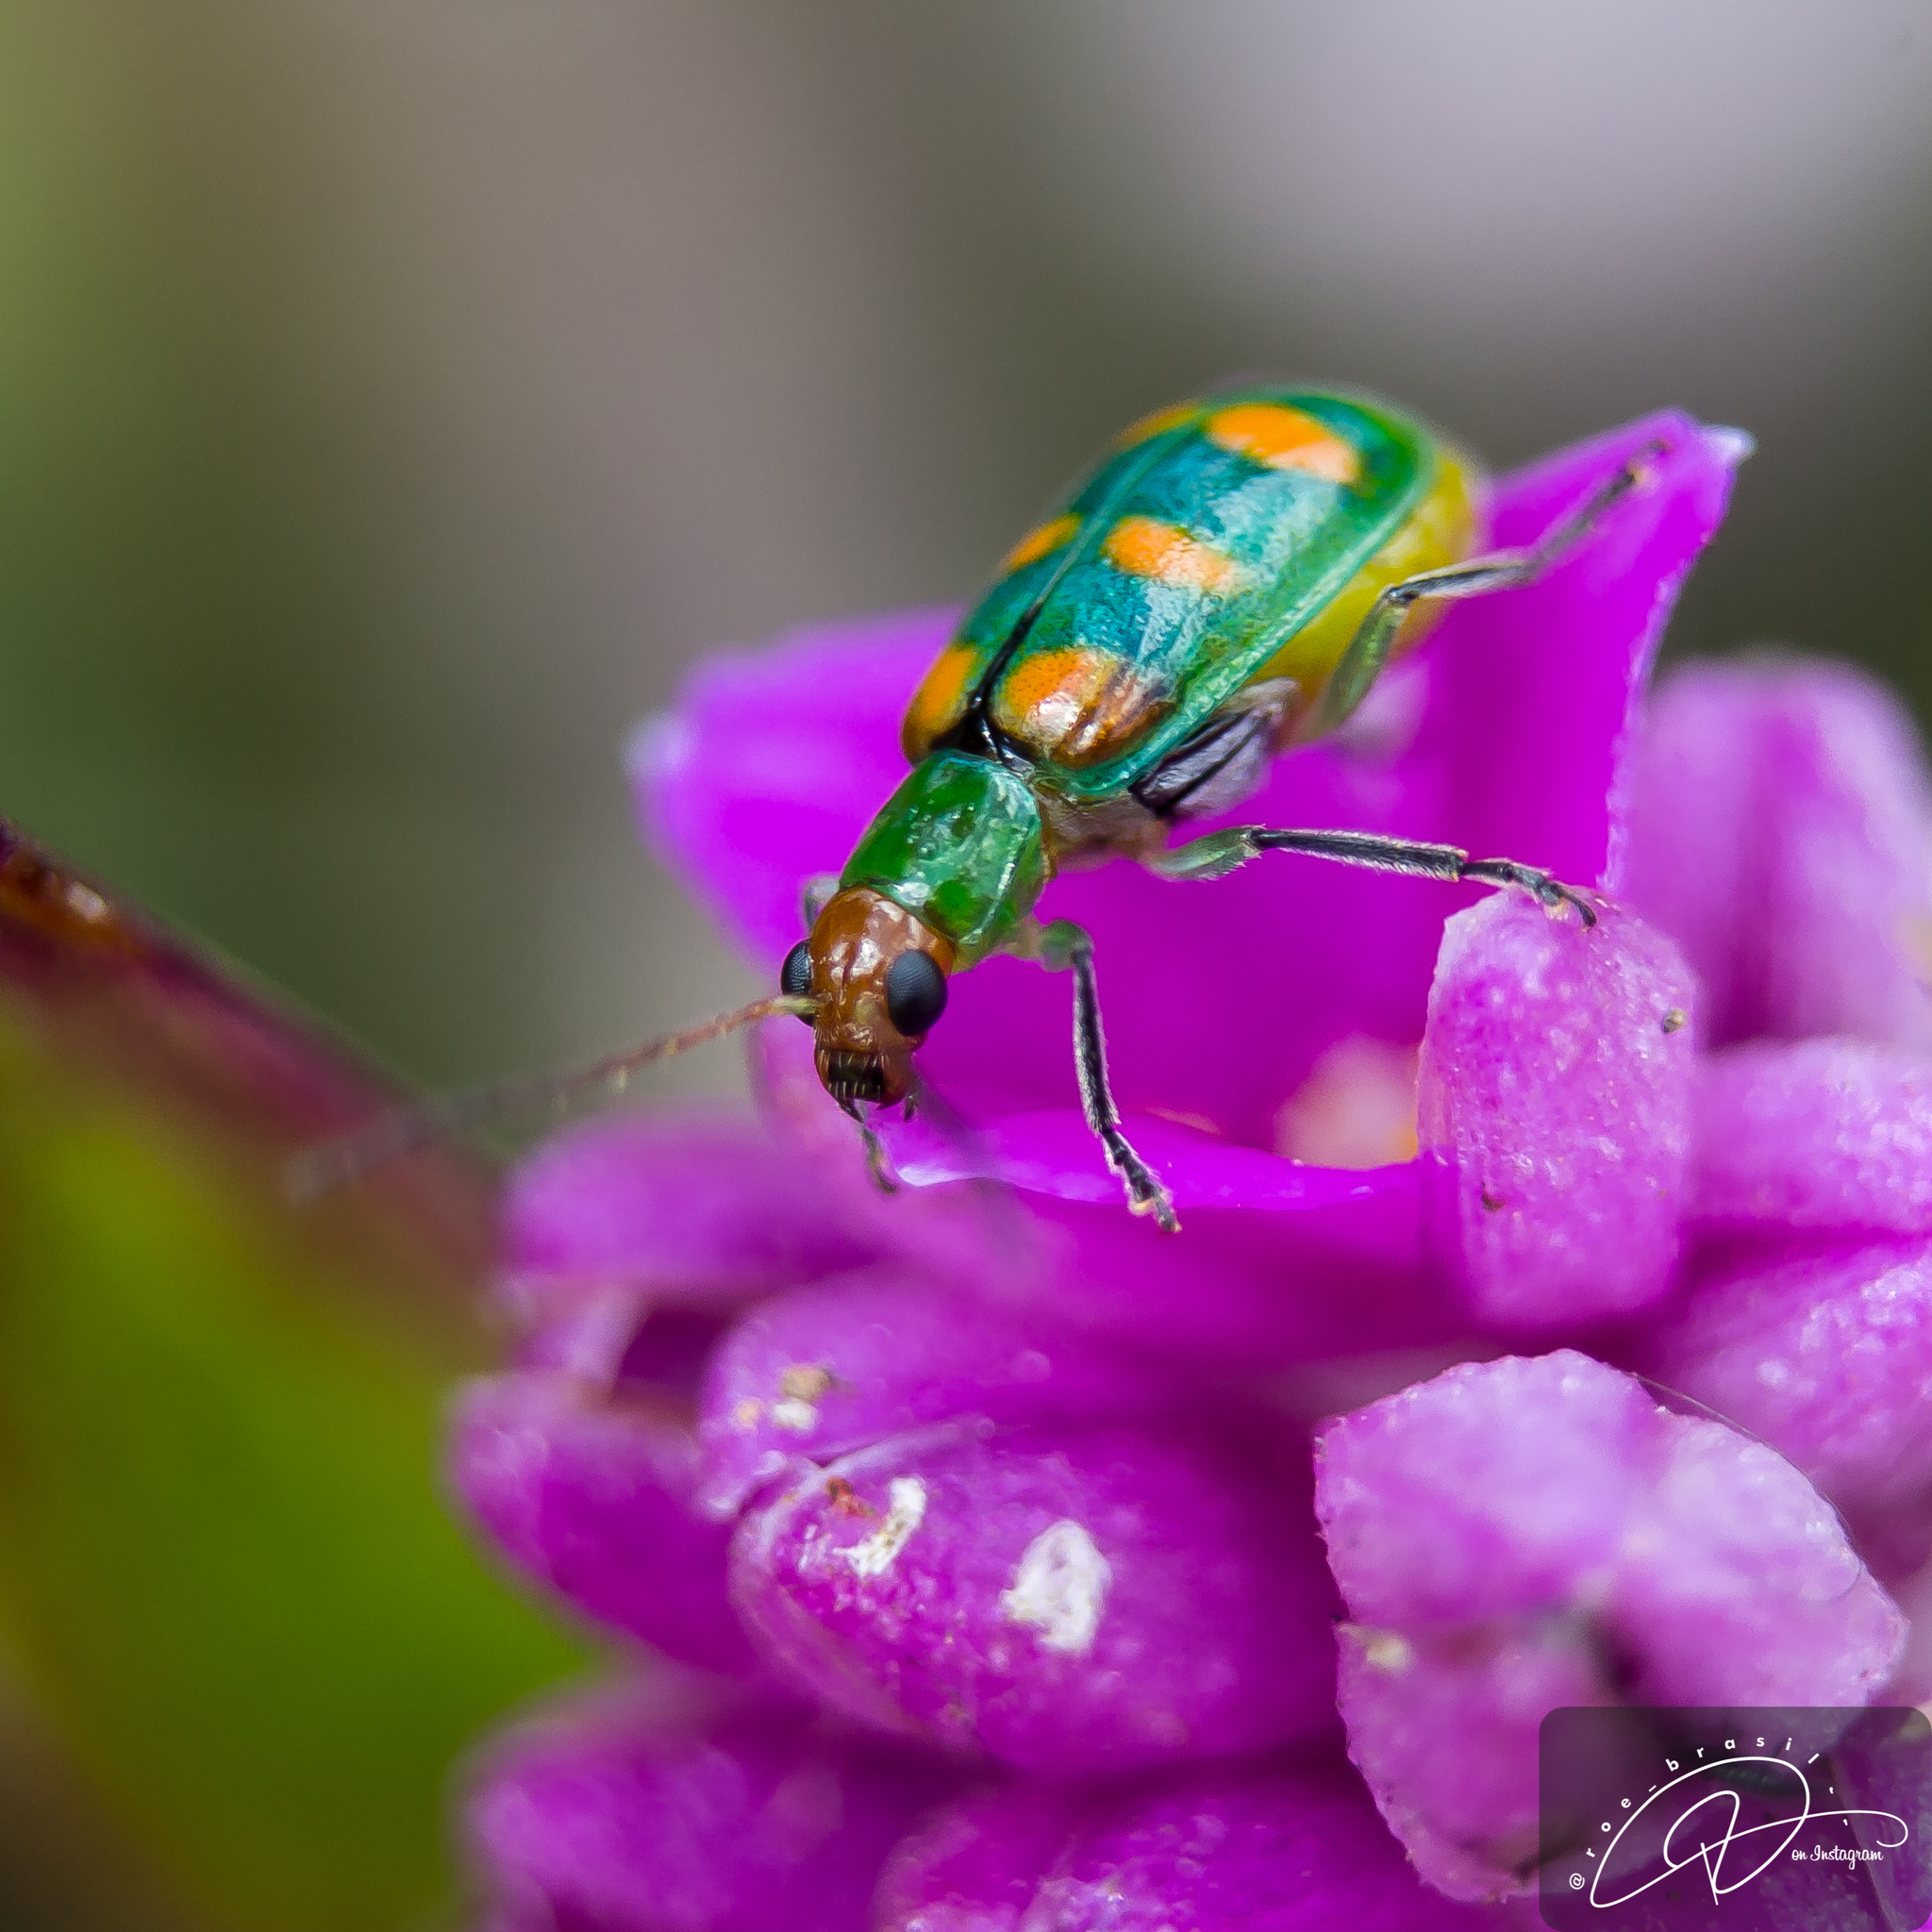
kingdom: Animalia
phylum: Arthropoda
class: Insecta
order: Coleoptera
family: Chrysomelidae
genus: Diabrotica
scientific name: Diabrotica speciosa
